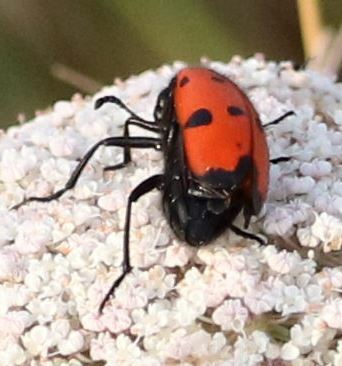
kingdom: Animalia
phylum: Arthropoda
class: Insecta
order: Coleoptera
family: Meloidae
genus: Mylabris
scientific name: Mylabris quadripunctata
